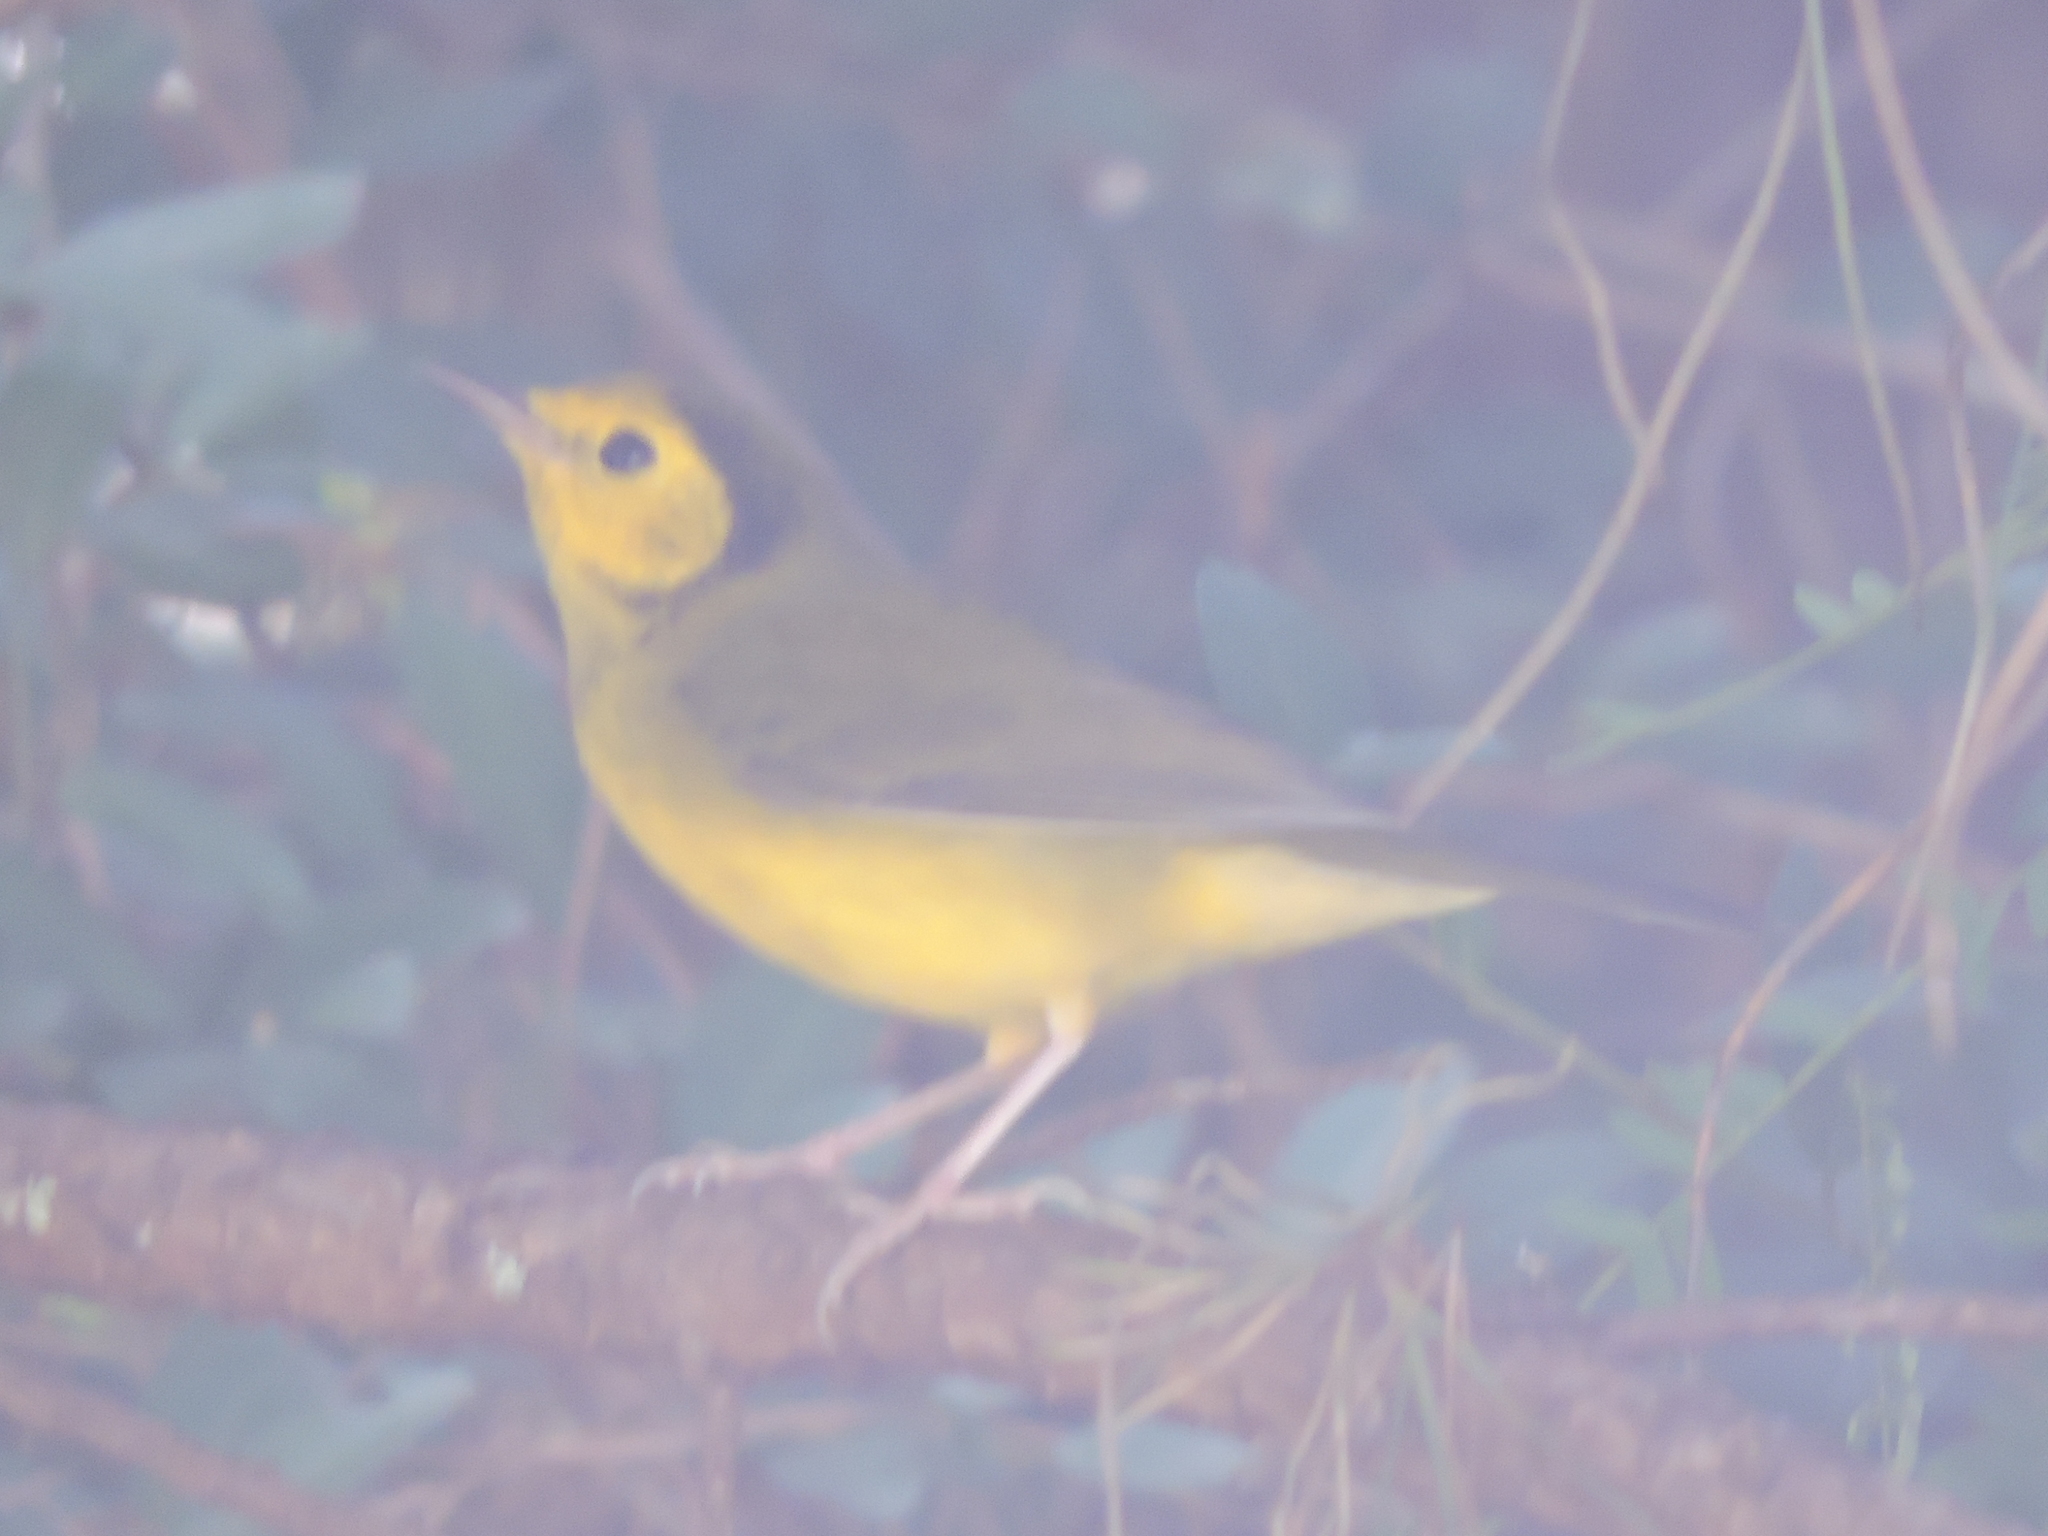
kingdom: Animalia
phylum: Chordata
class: Aves
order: Passeriformes
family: Parulidae
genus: Setophaga
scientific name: Setophaga citrina
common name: Hooded warbler
